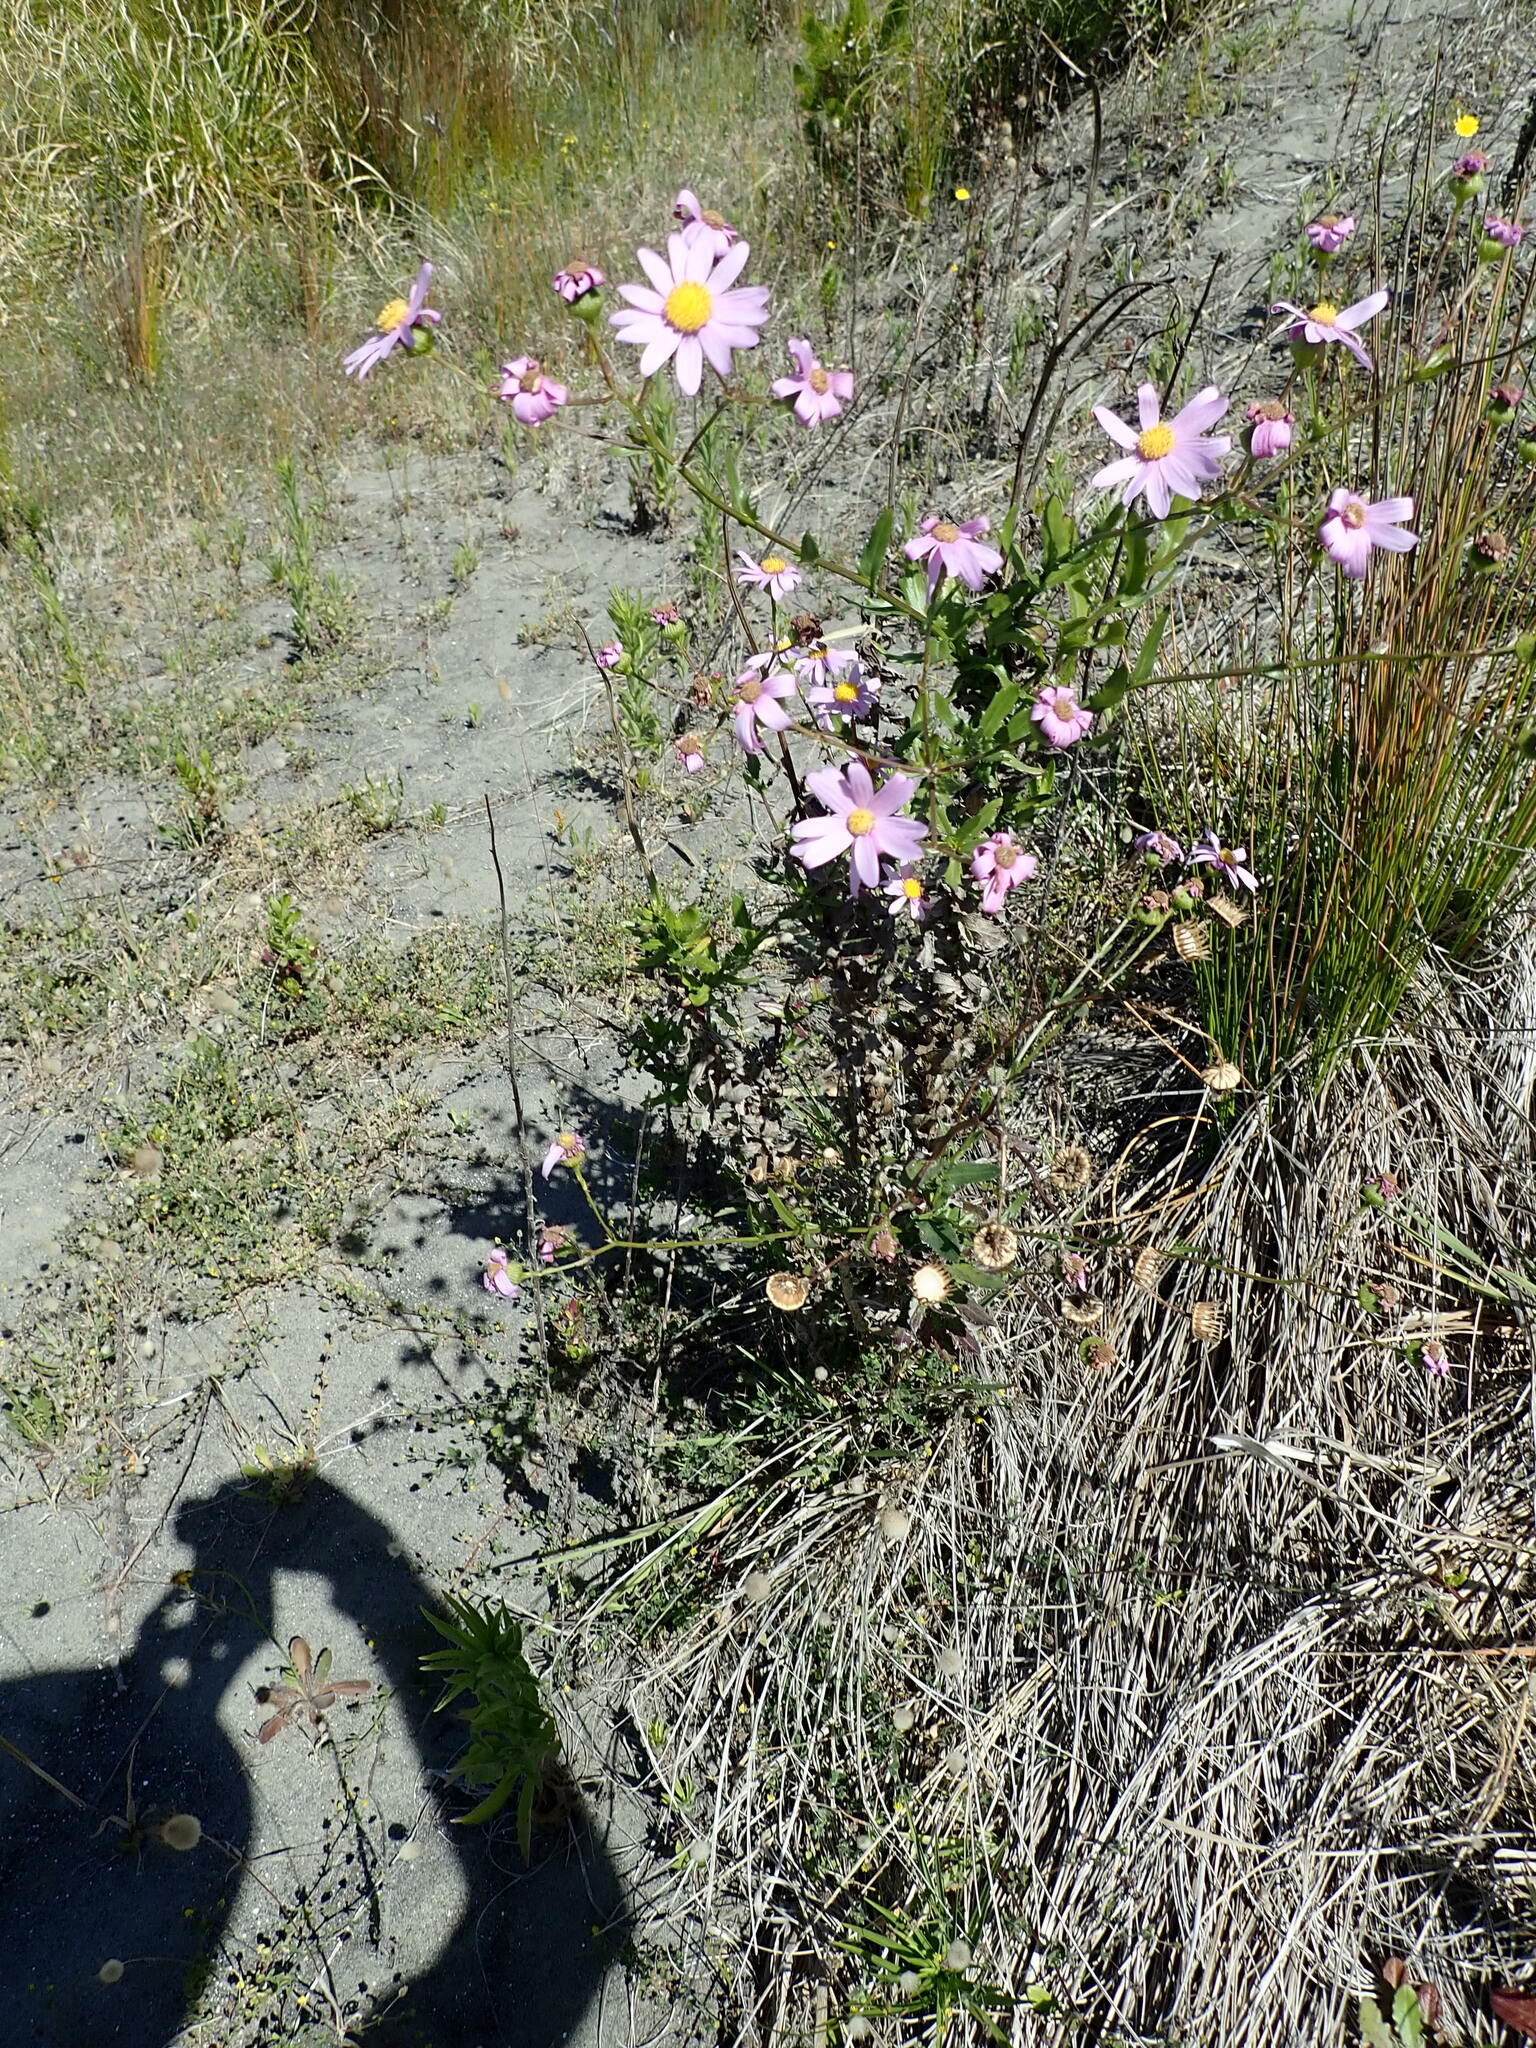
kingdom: Plantae
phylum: Tracheophyta
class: Magnoliopsida
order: Asterales
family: Asteraceae
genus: Senecio
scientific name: Senecio glastifolius
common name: Woad-leaved ragwort
